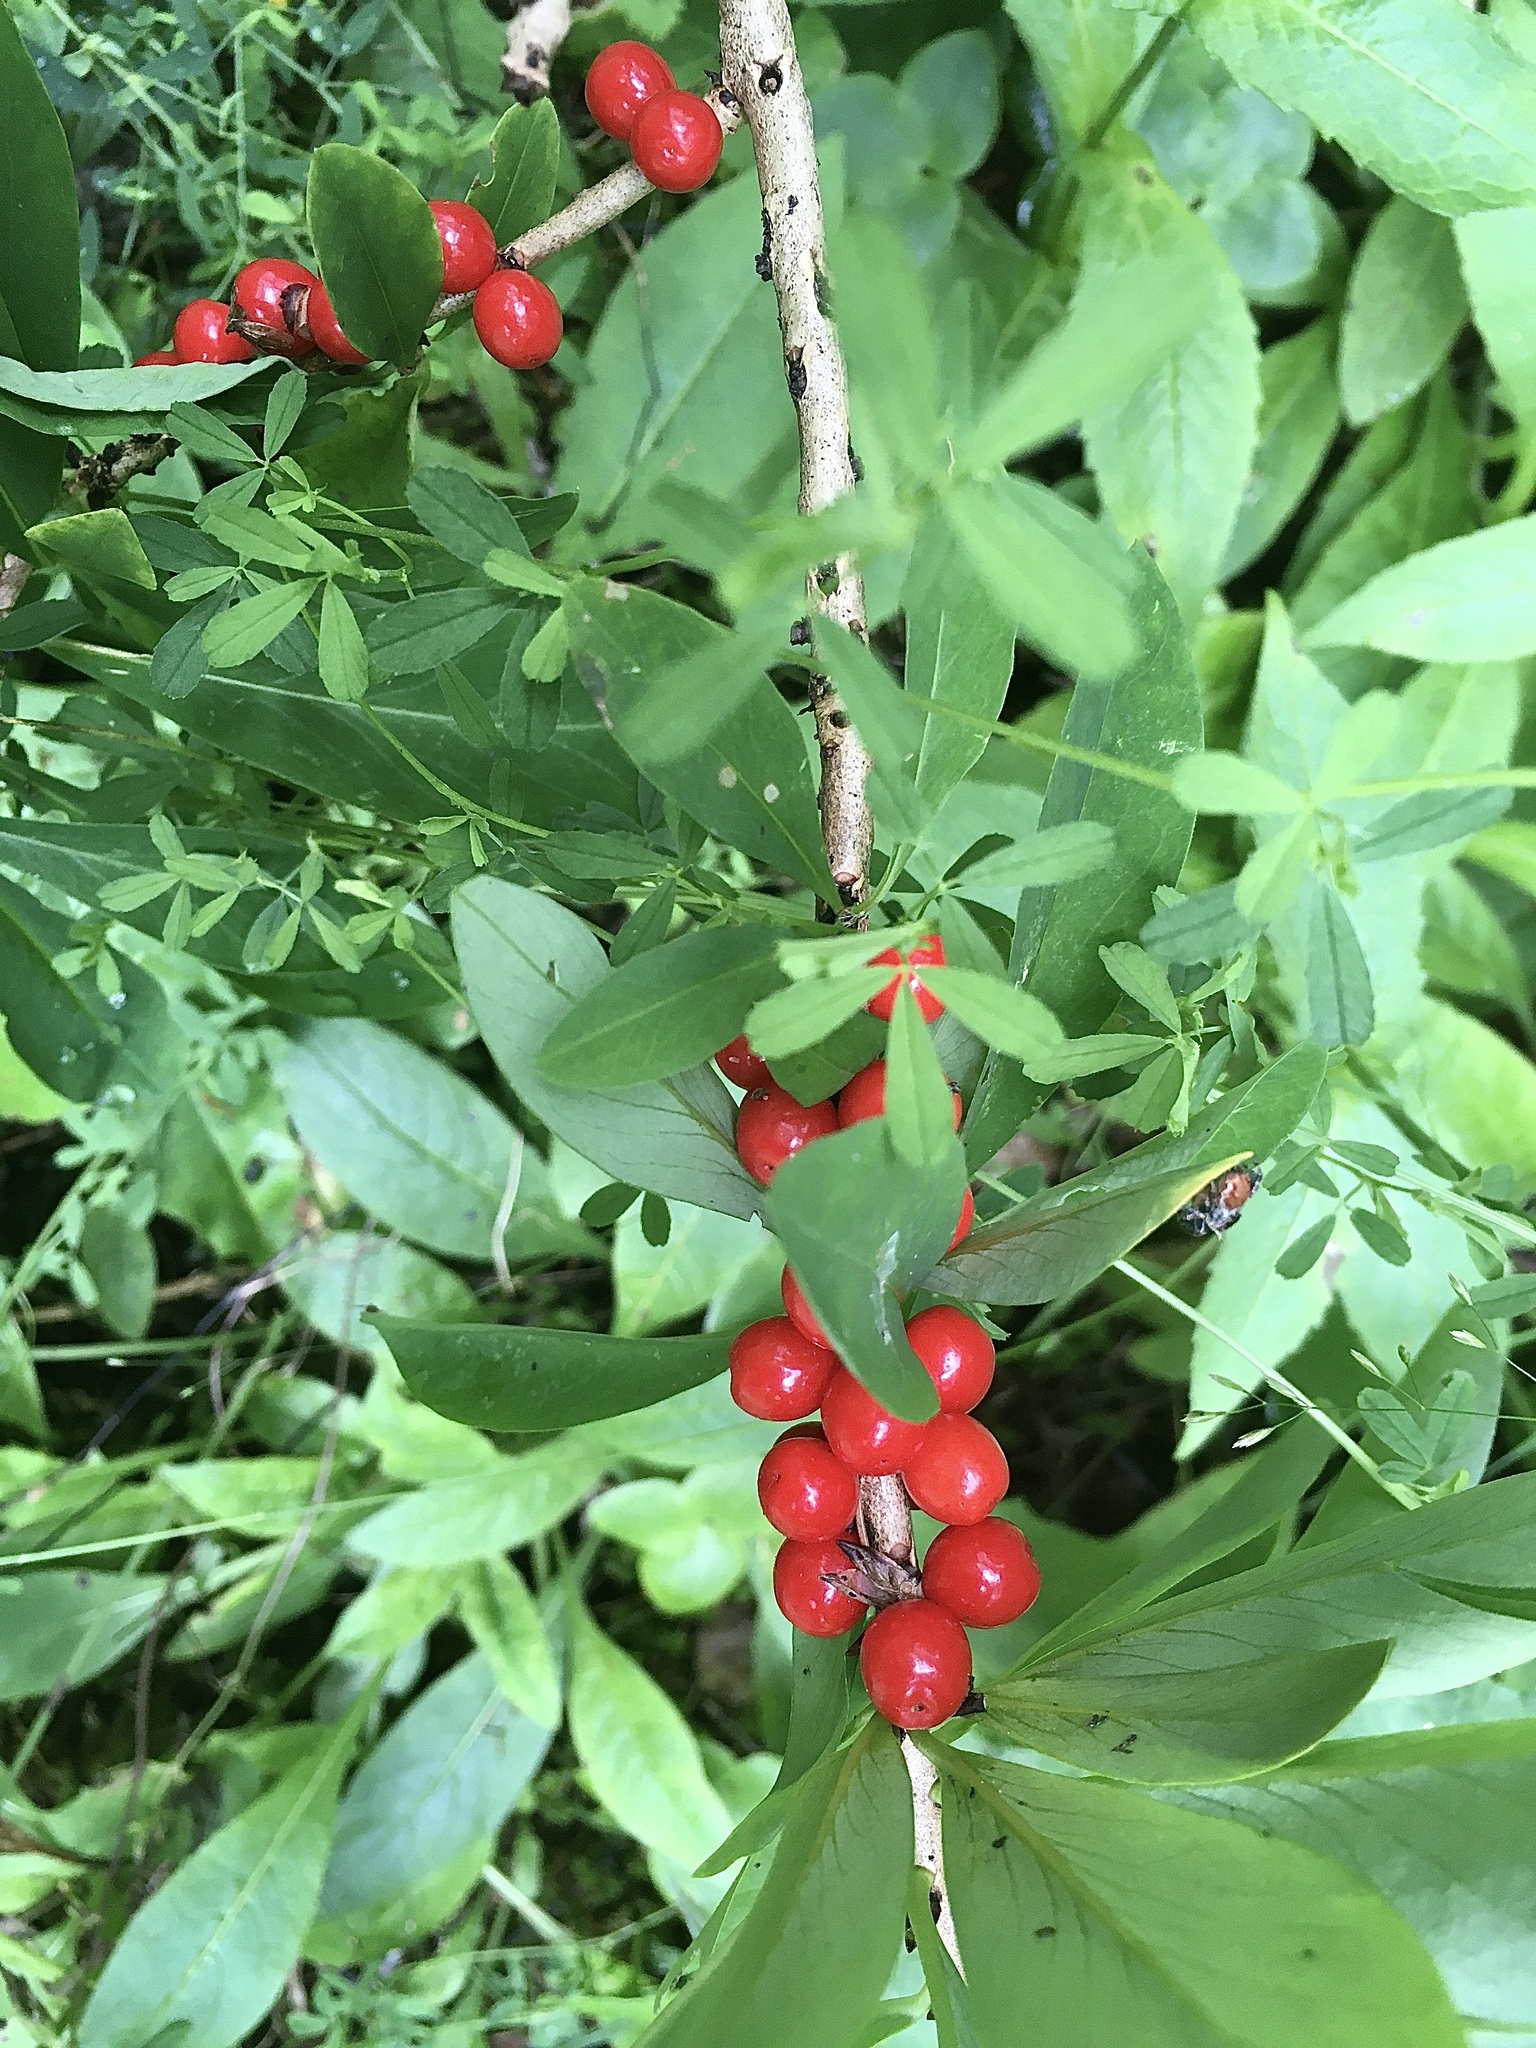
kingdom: Plantae
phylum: Tracheophyta
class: Magnoliopsida
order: Malvales
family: Thymelaeaceae
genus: Daphne
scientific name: Daphne mezereum
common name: Mezereon
